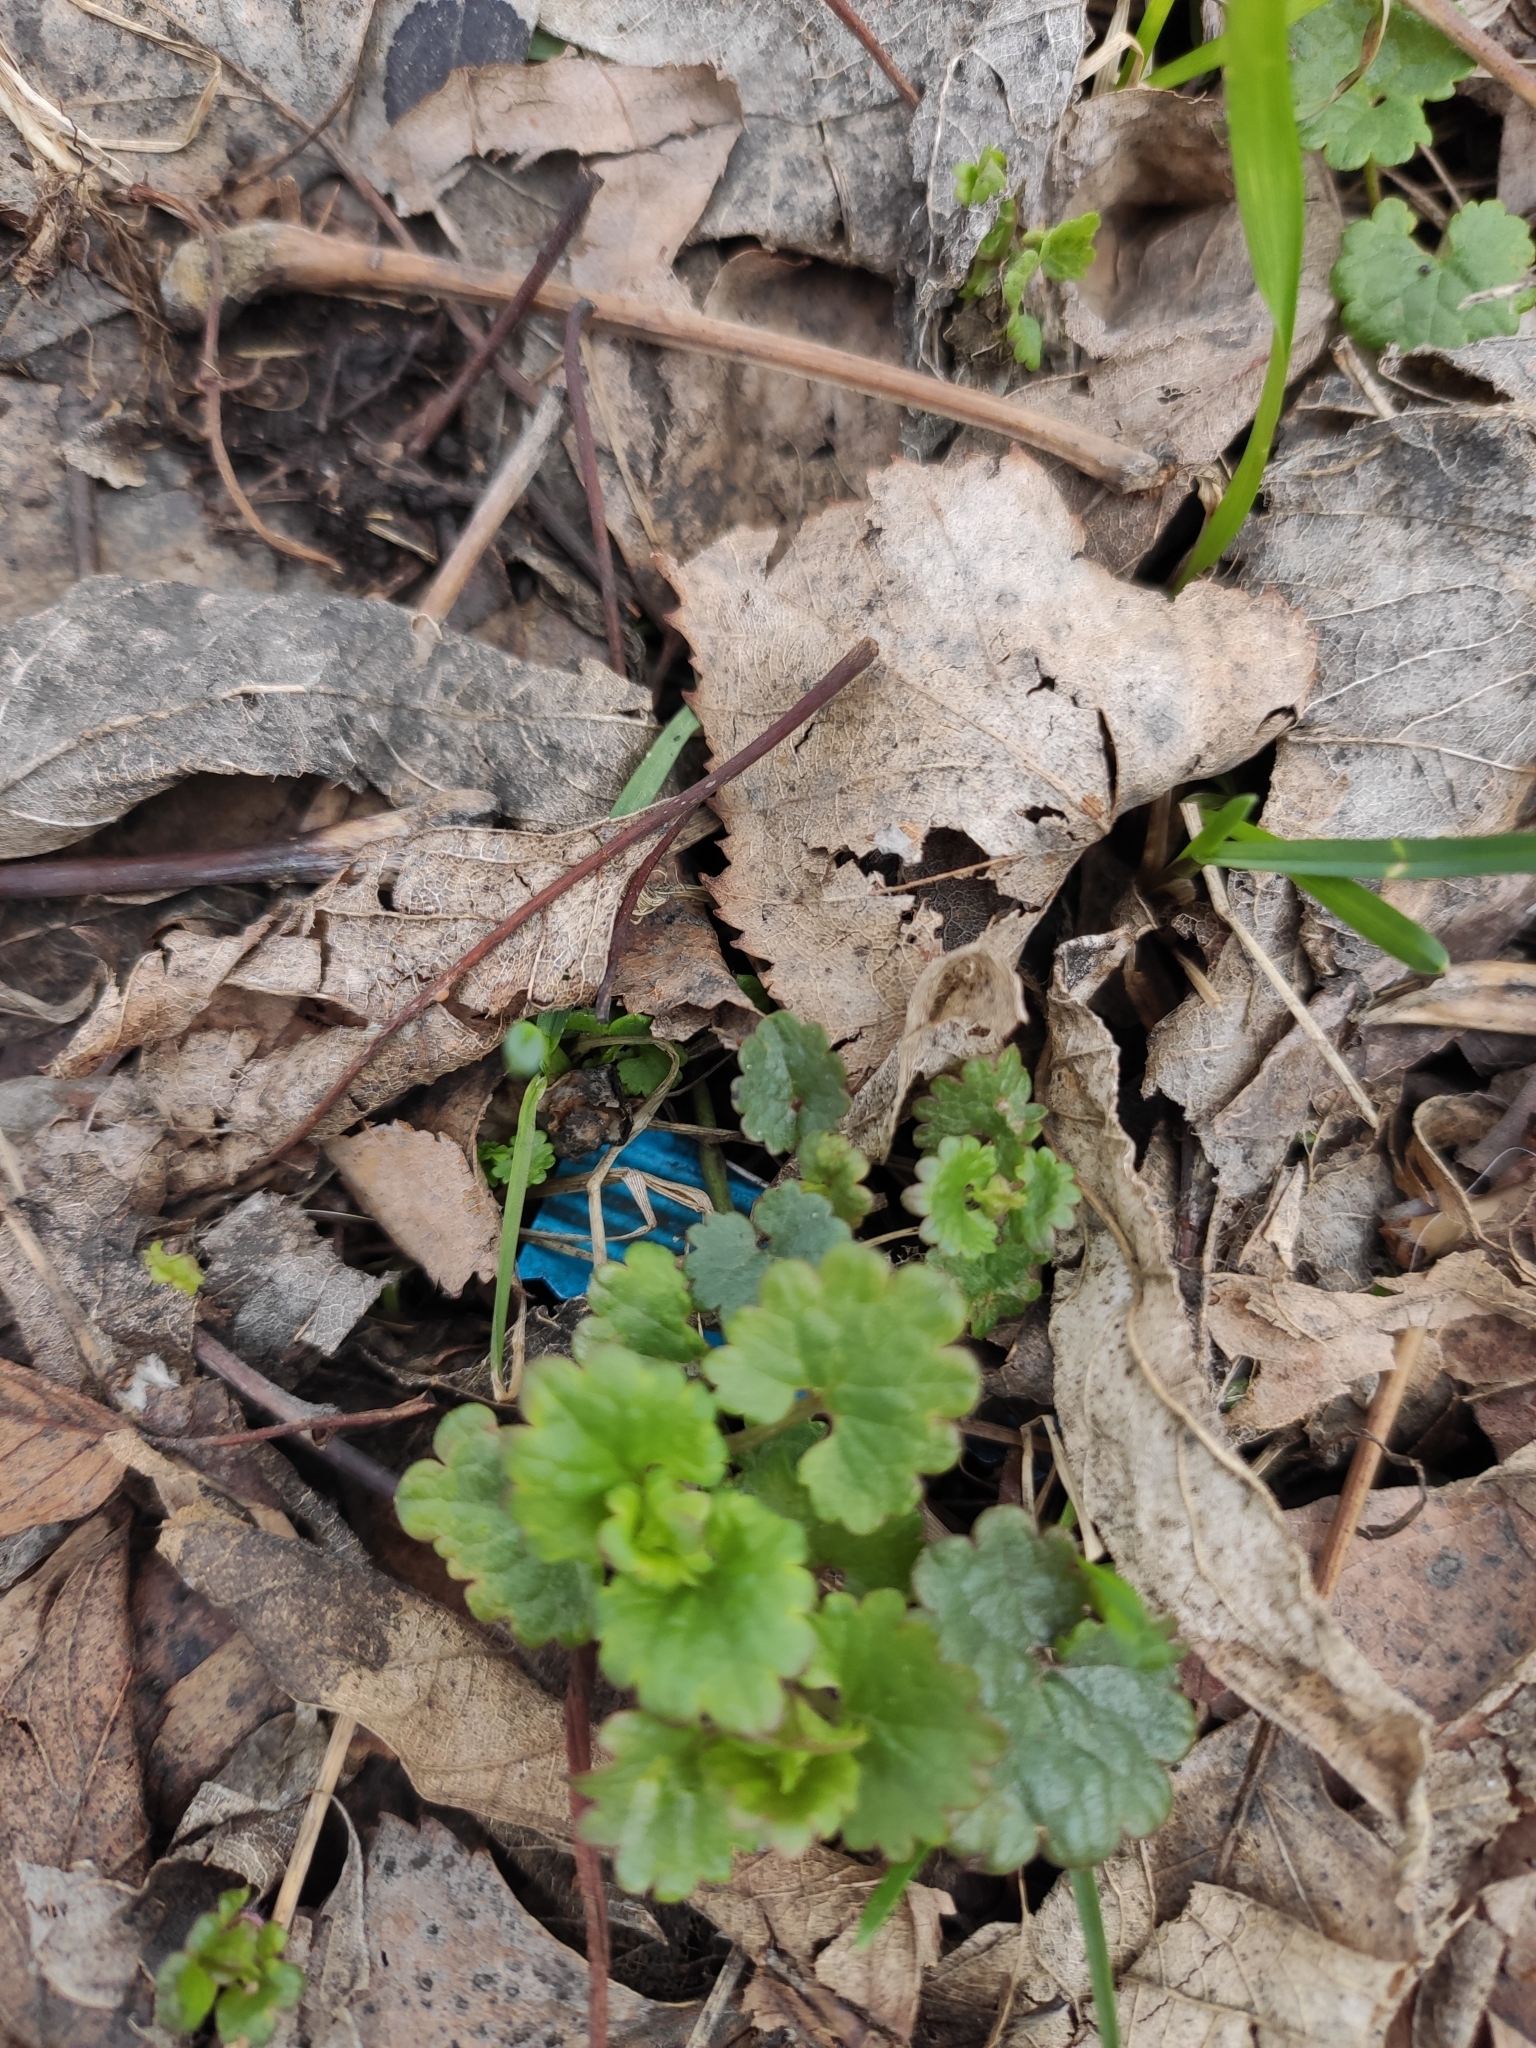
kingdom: Plantae
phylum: Tracheophyta
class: Magnoliopsida
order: Lamiales
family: Lamiaceae
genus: Glechoma
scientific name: Glechoma hederacea
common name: Ground ivy
